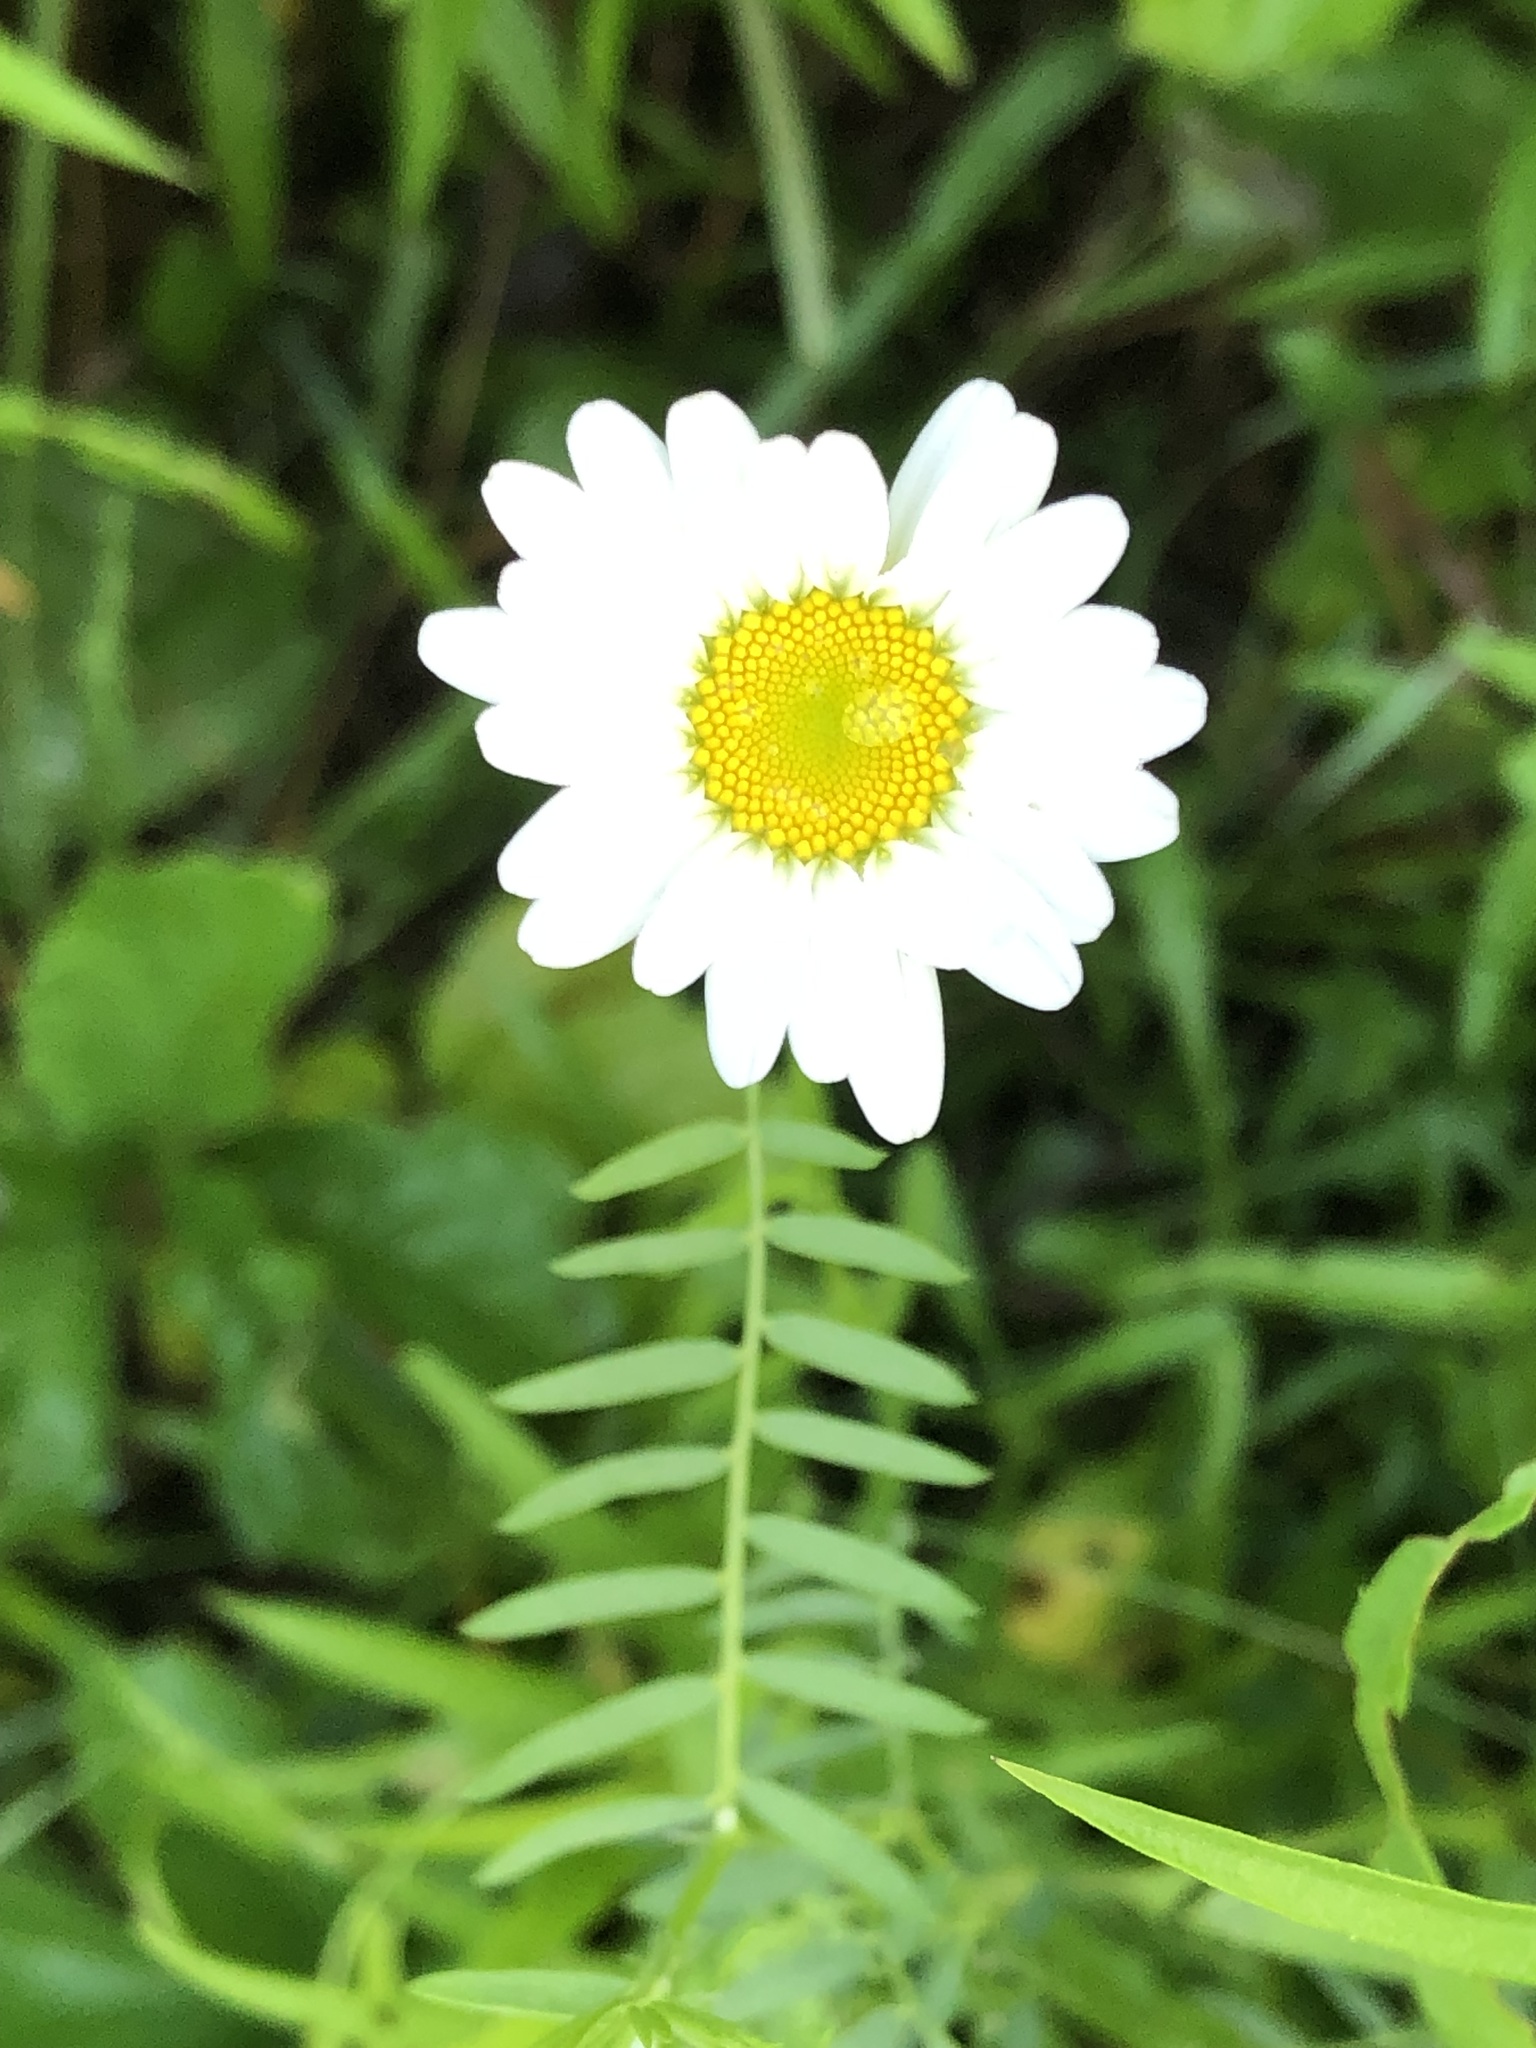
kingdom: Plantae
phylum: Tracheophyta
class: Magnoliopsida
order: Asterales
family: Asteraceae
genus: Leucanthemum
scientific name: Leucanthemum vulgare
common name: Oxeye daisy
